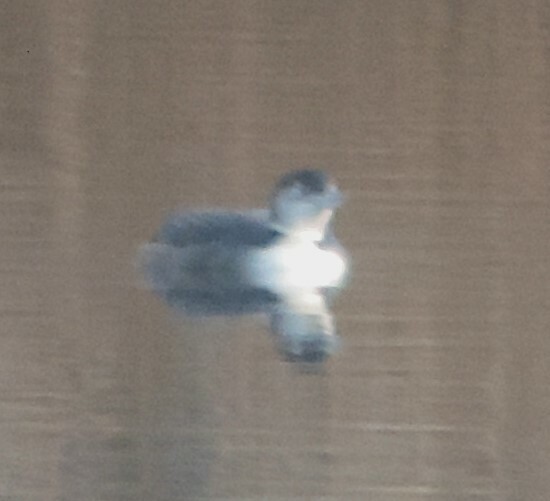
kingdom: Animalia
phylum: Chordata
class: Aves
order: Gaviiformes
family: Gaviidae
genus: Gavia
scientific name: Gavia immer
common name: Common loon
